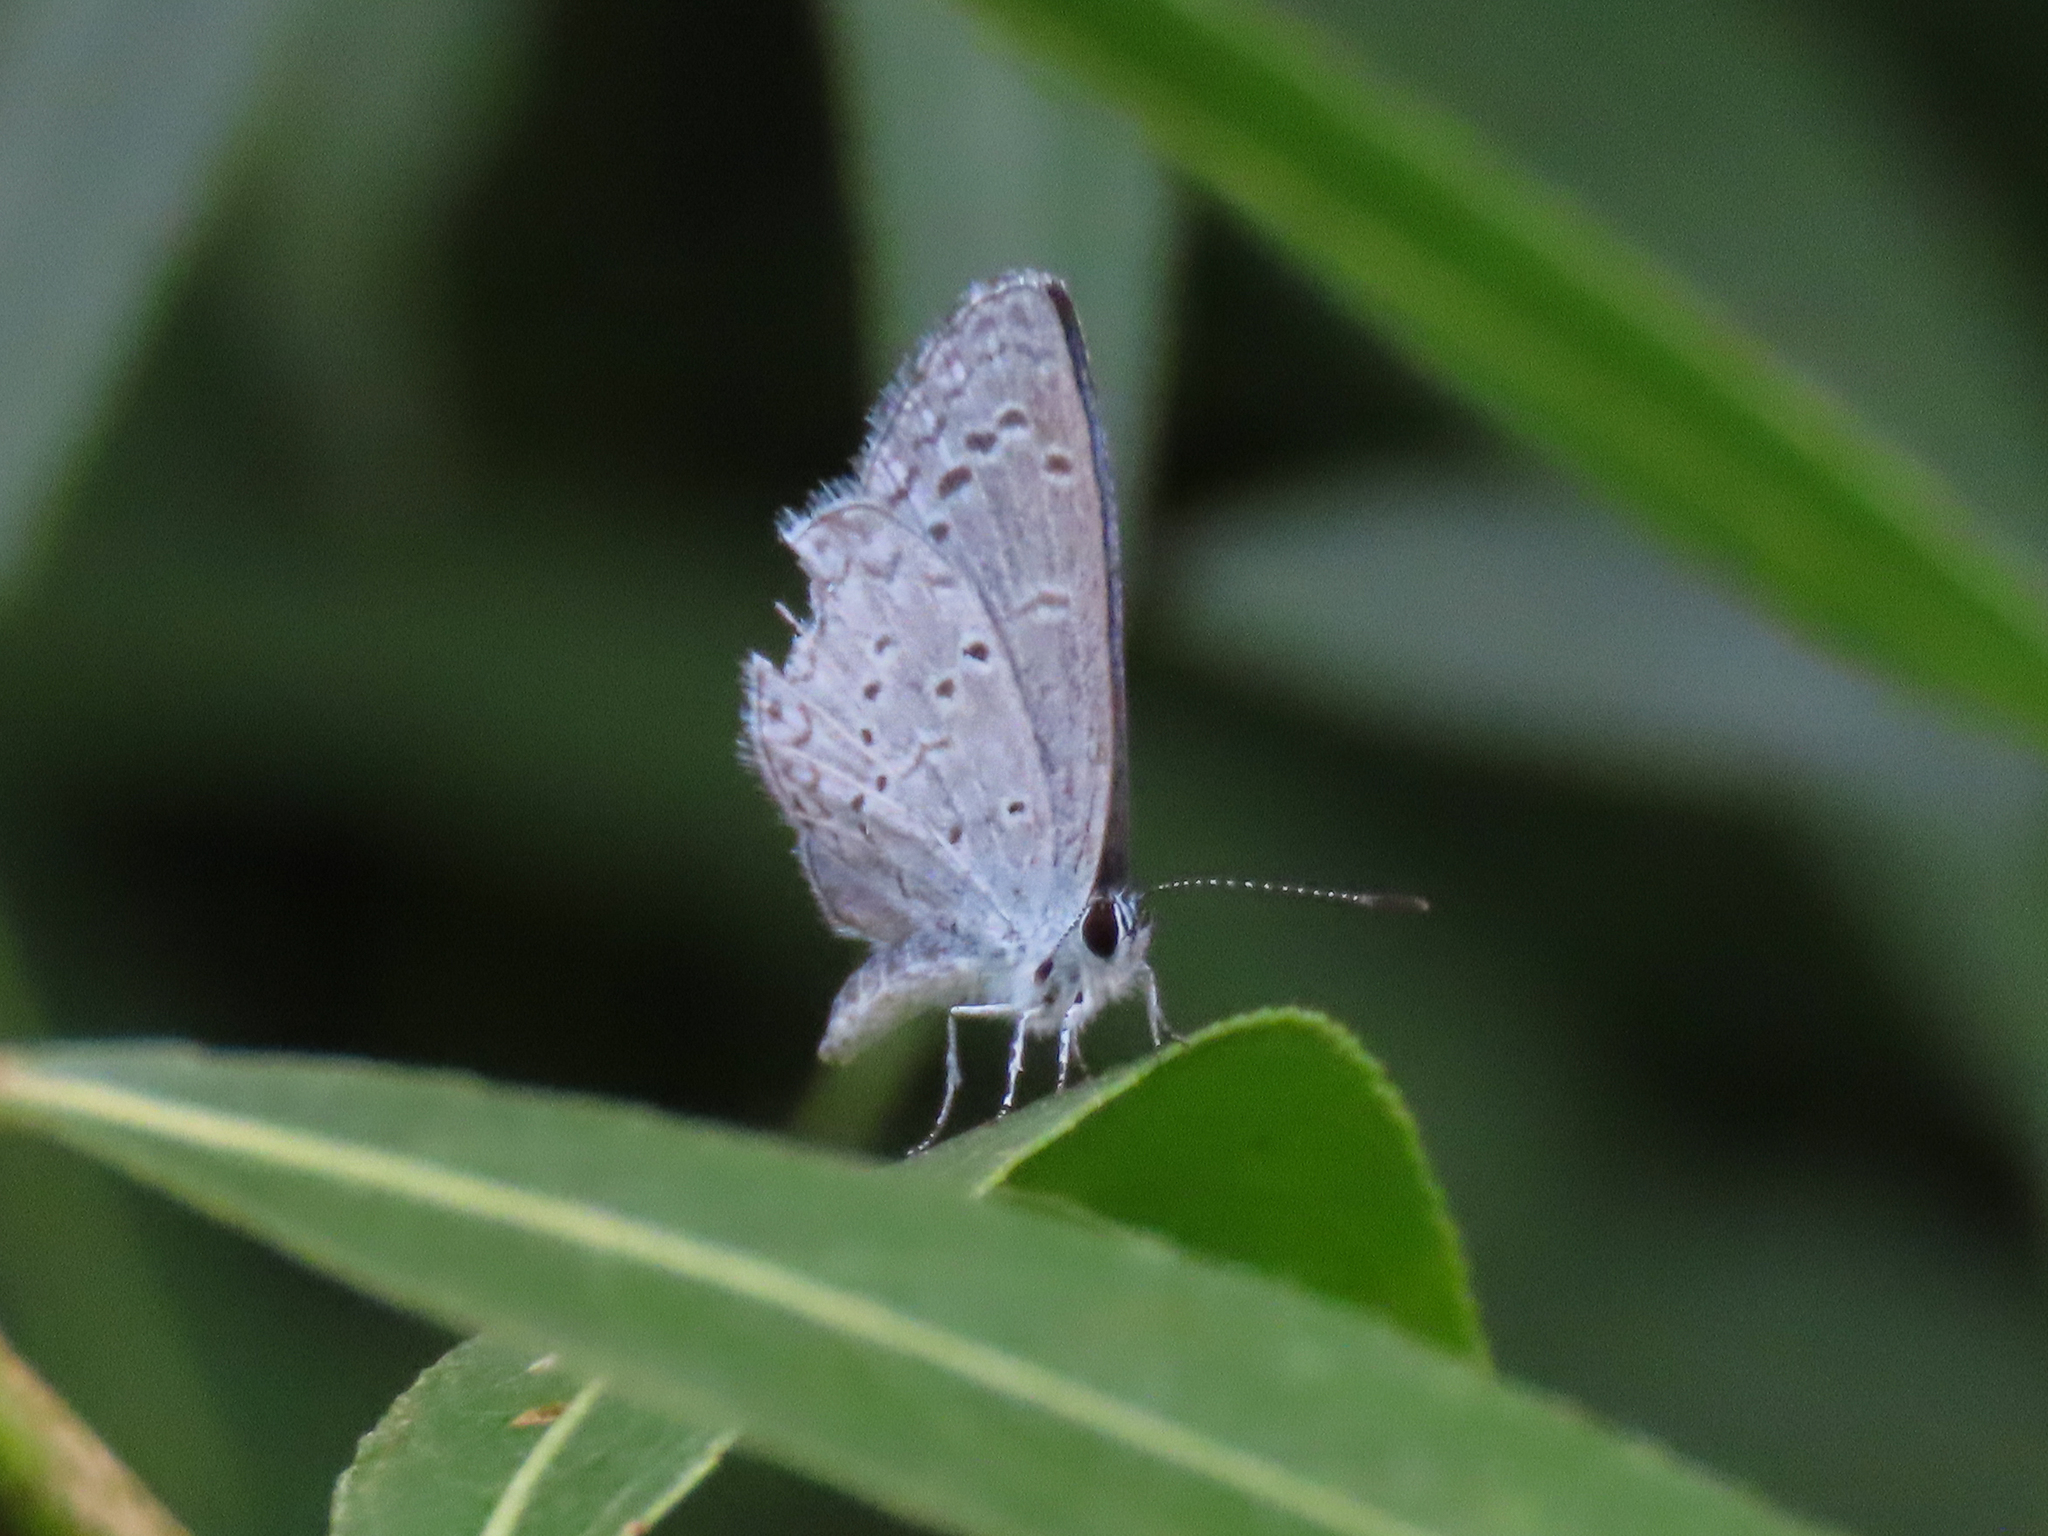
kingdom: Animalia
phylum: Arthropoda
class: Insecta
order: Lepidoptera
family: Lycaenidae
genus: Celastrina
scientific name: Celastrina ladon
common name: Spring azure
